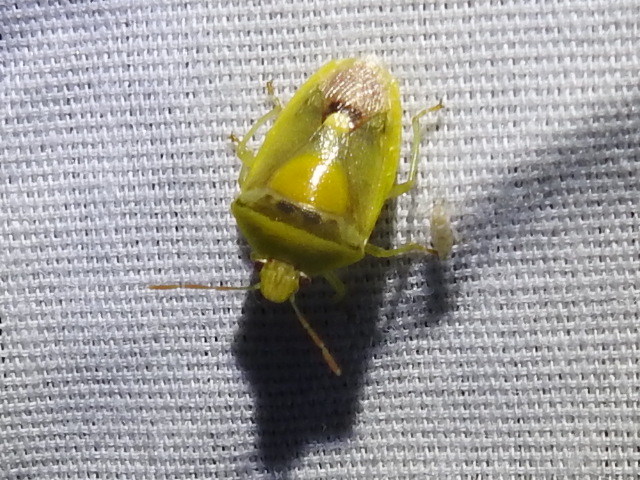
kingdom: Animalia
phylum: Arthropoda
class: Insecta
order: Hemiptera
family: Pentatomidae
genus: Banasa
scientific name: Banasa dimidiata
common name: Green burgundy stink bug
